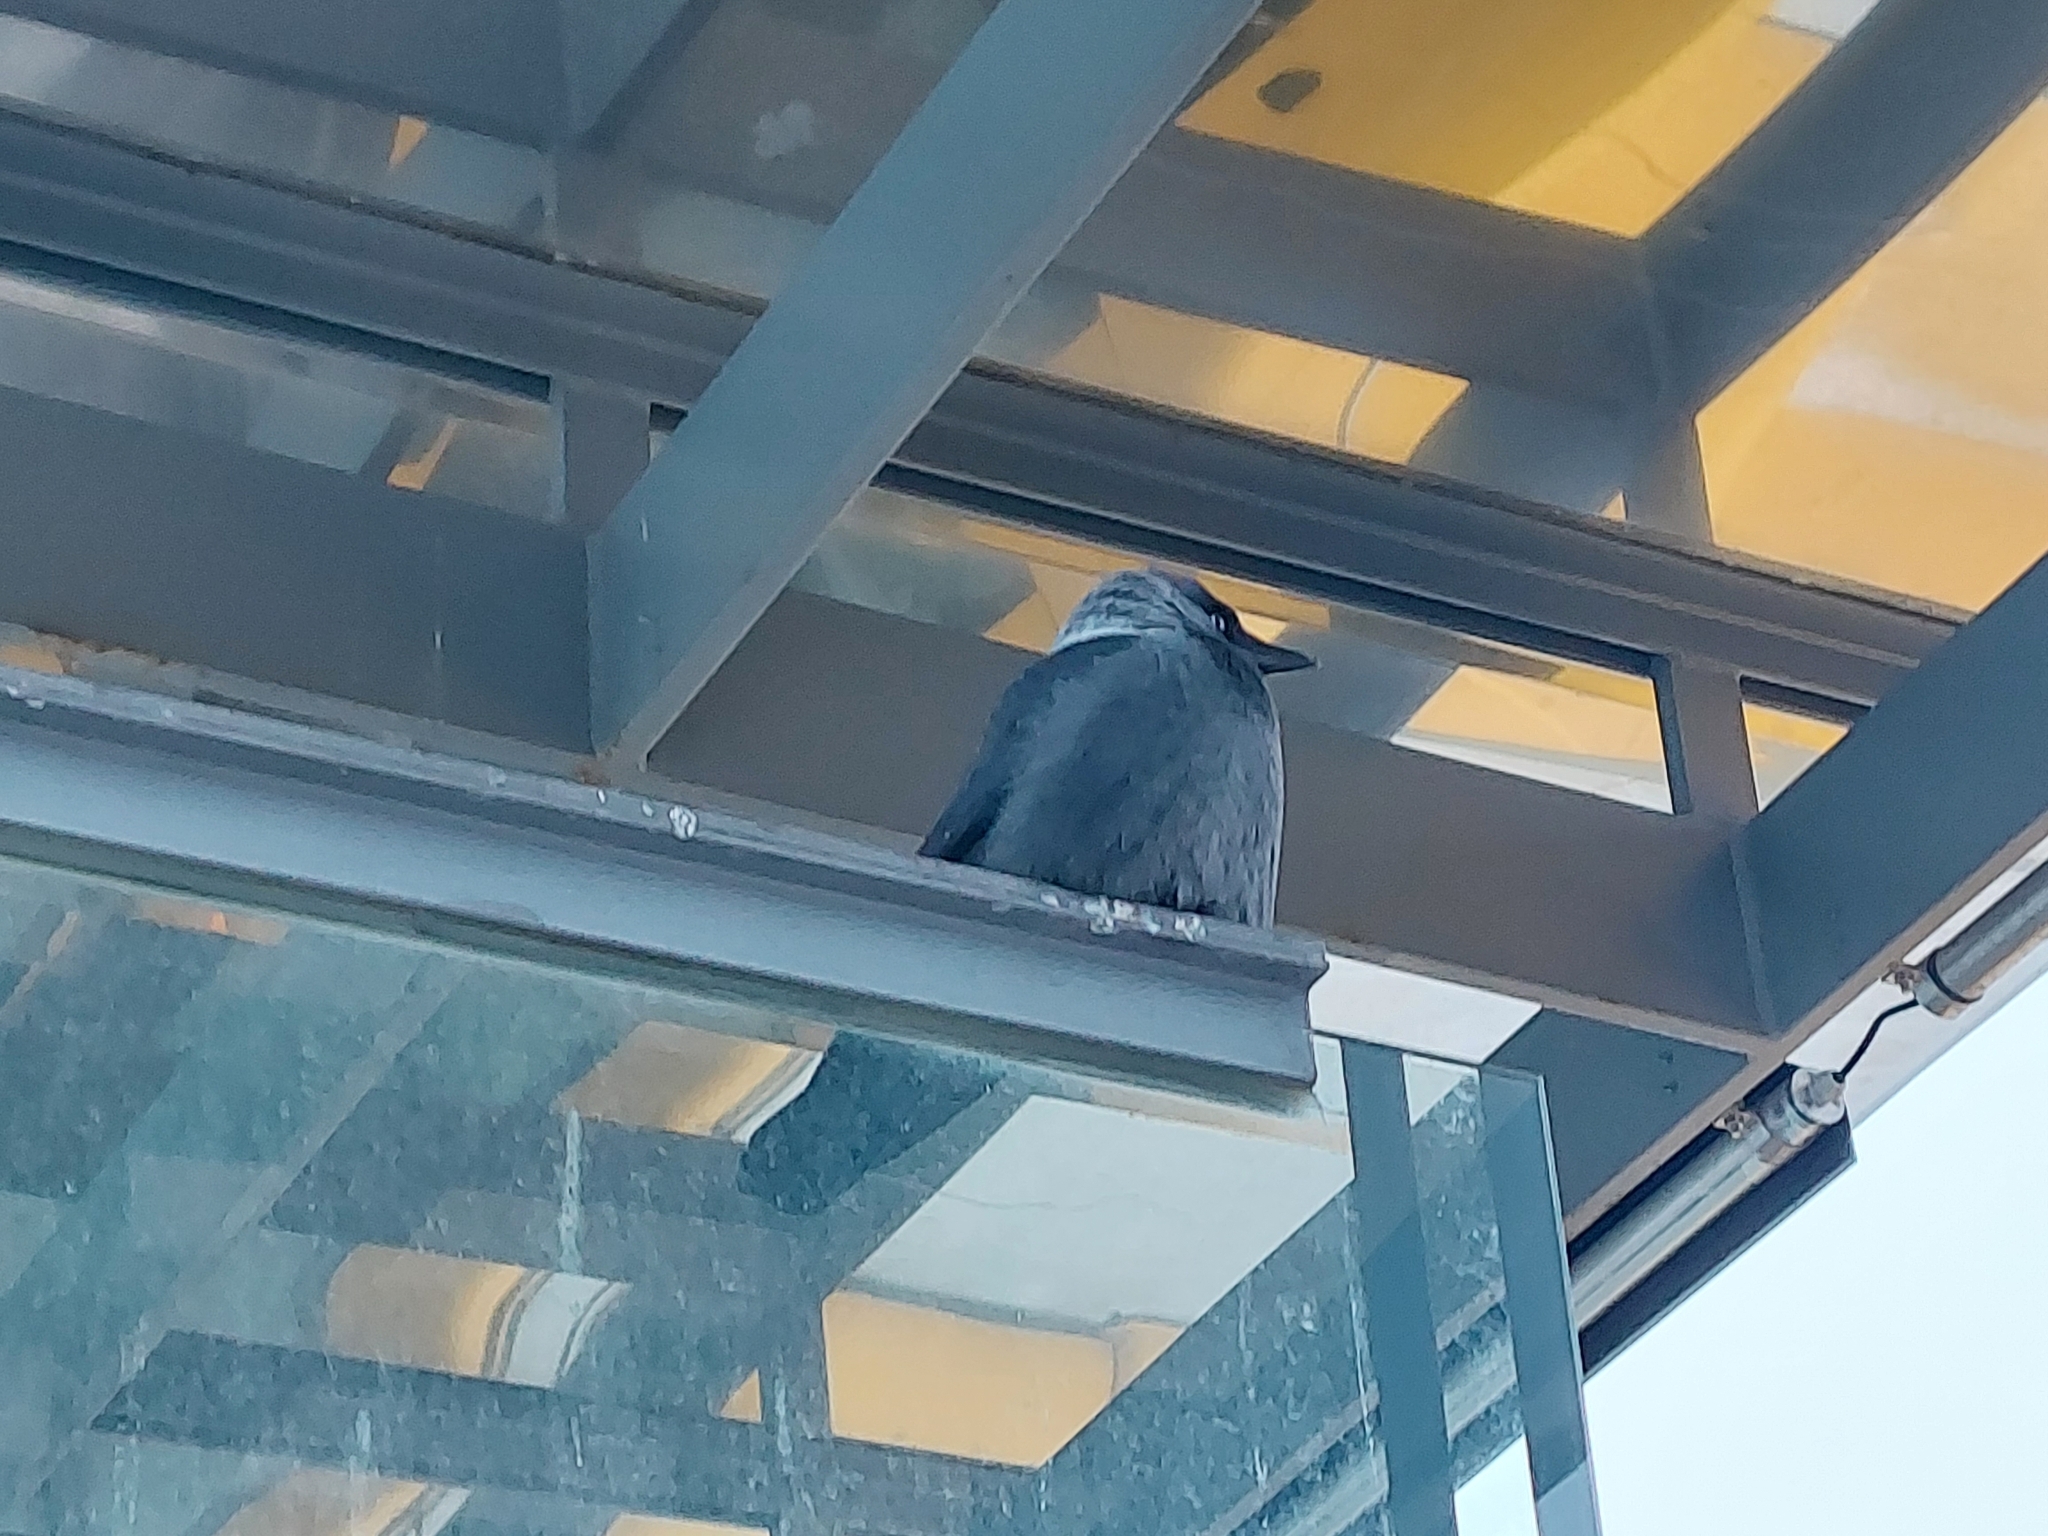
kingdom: Animalia
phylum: Chordata
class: Aves
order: Passeriformes
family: Corvidae
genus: Coloeus
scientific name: Coloeus monedula
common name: Western jackdaw
